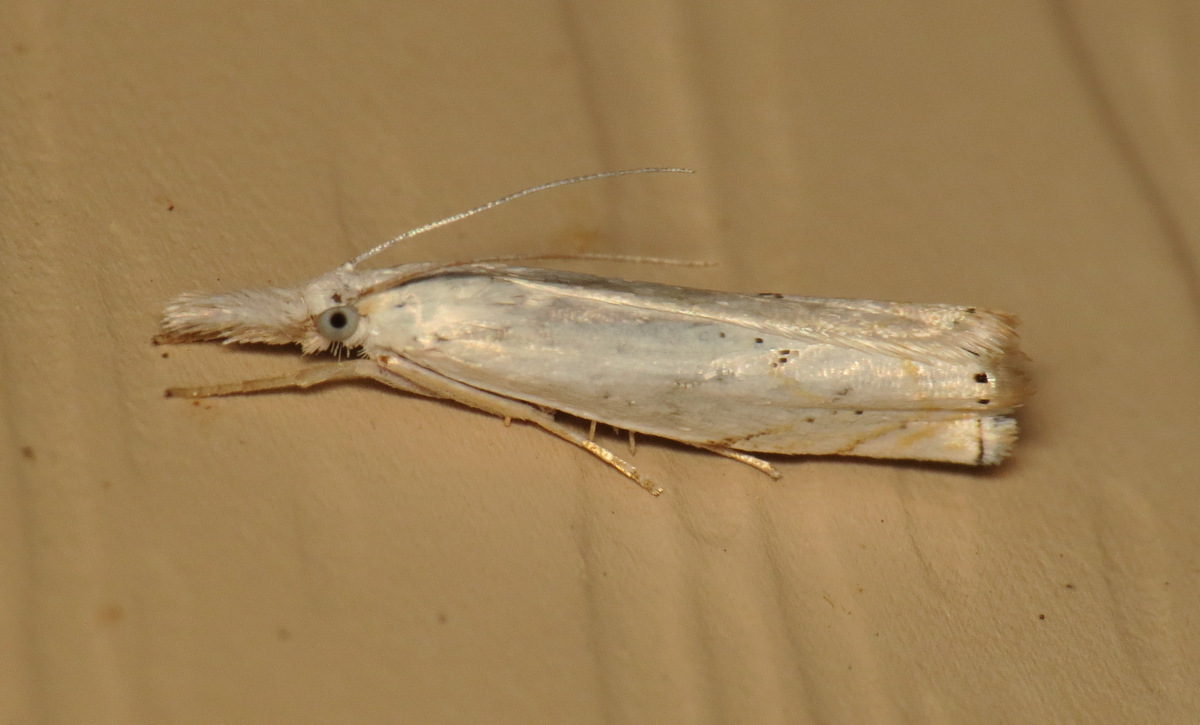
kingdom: Animalia
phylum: Arthropoda
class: Insecta
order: Lepidoptera
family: Crambidae
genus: Crambus
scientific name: Crambus albellus
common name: Small white grass-veneer
